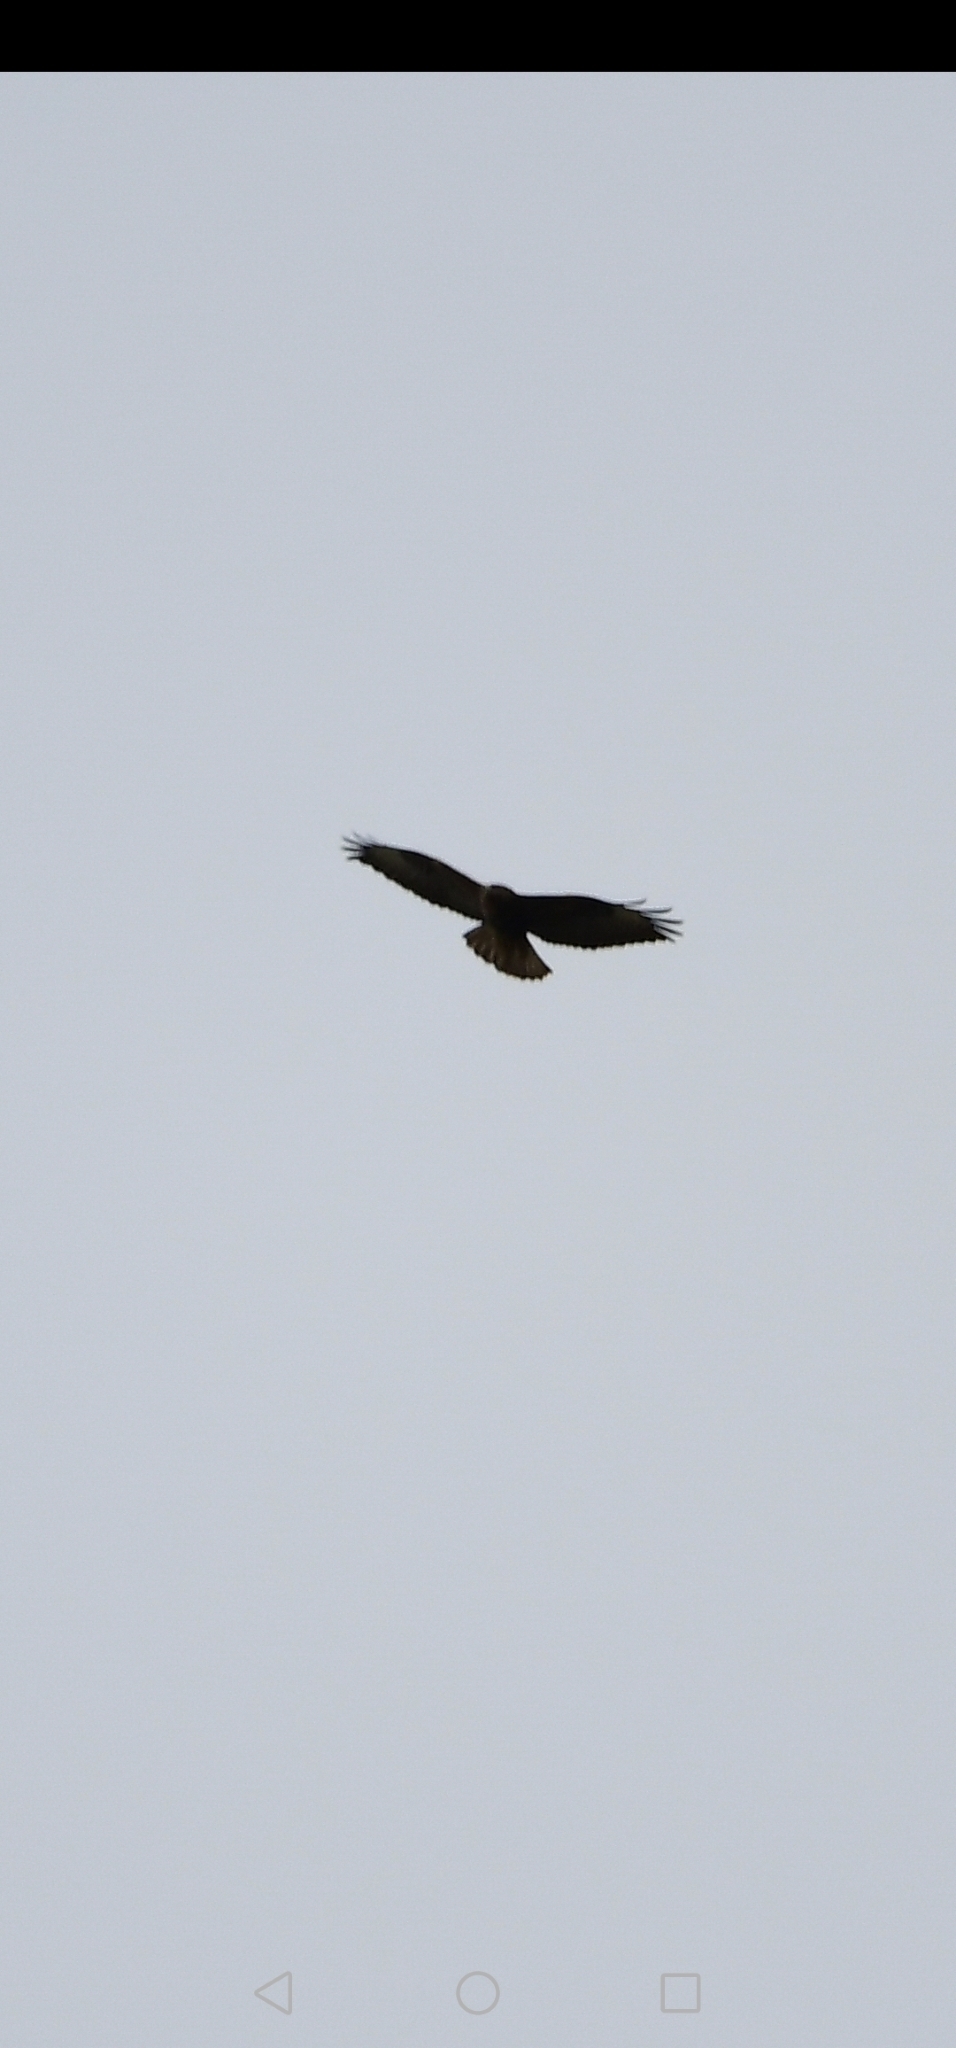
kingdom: Animalia
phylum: Chordata
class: Aves
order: Accipitriformes
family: Accipitridae
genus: Buteo
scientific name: Buteo buteo
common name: Common buzzard
